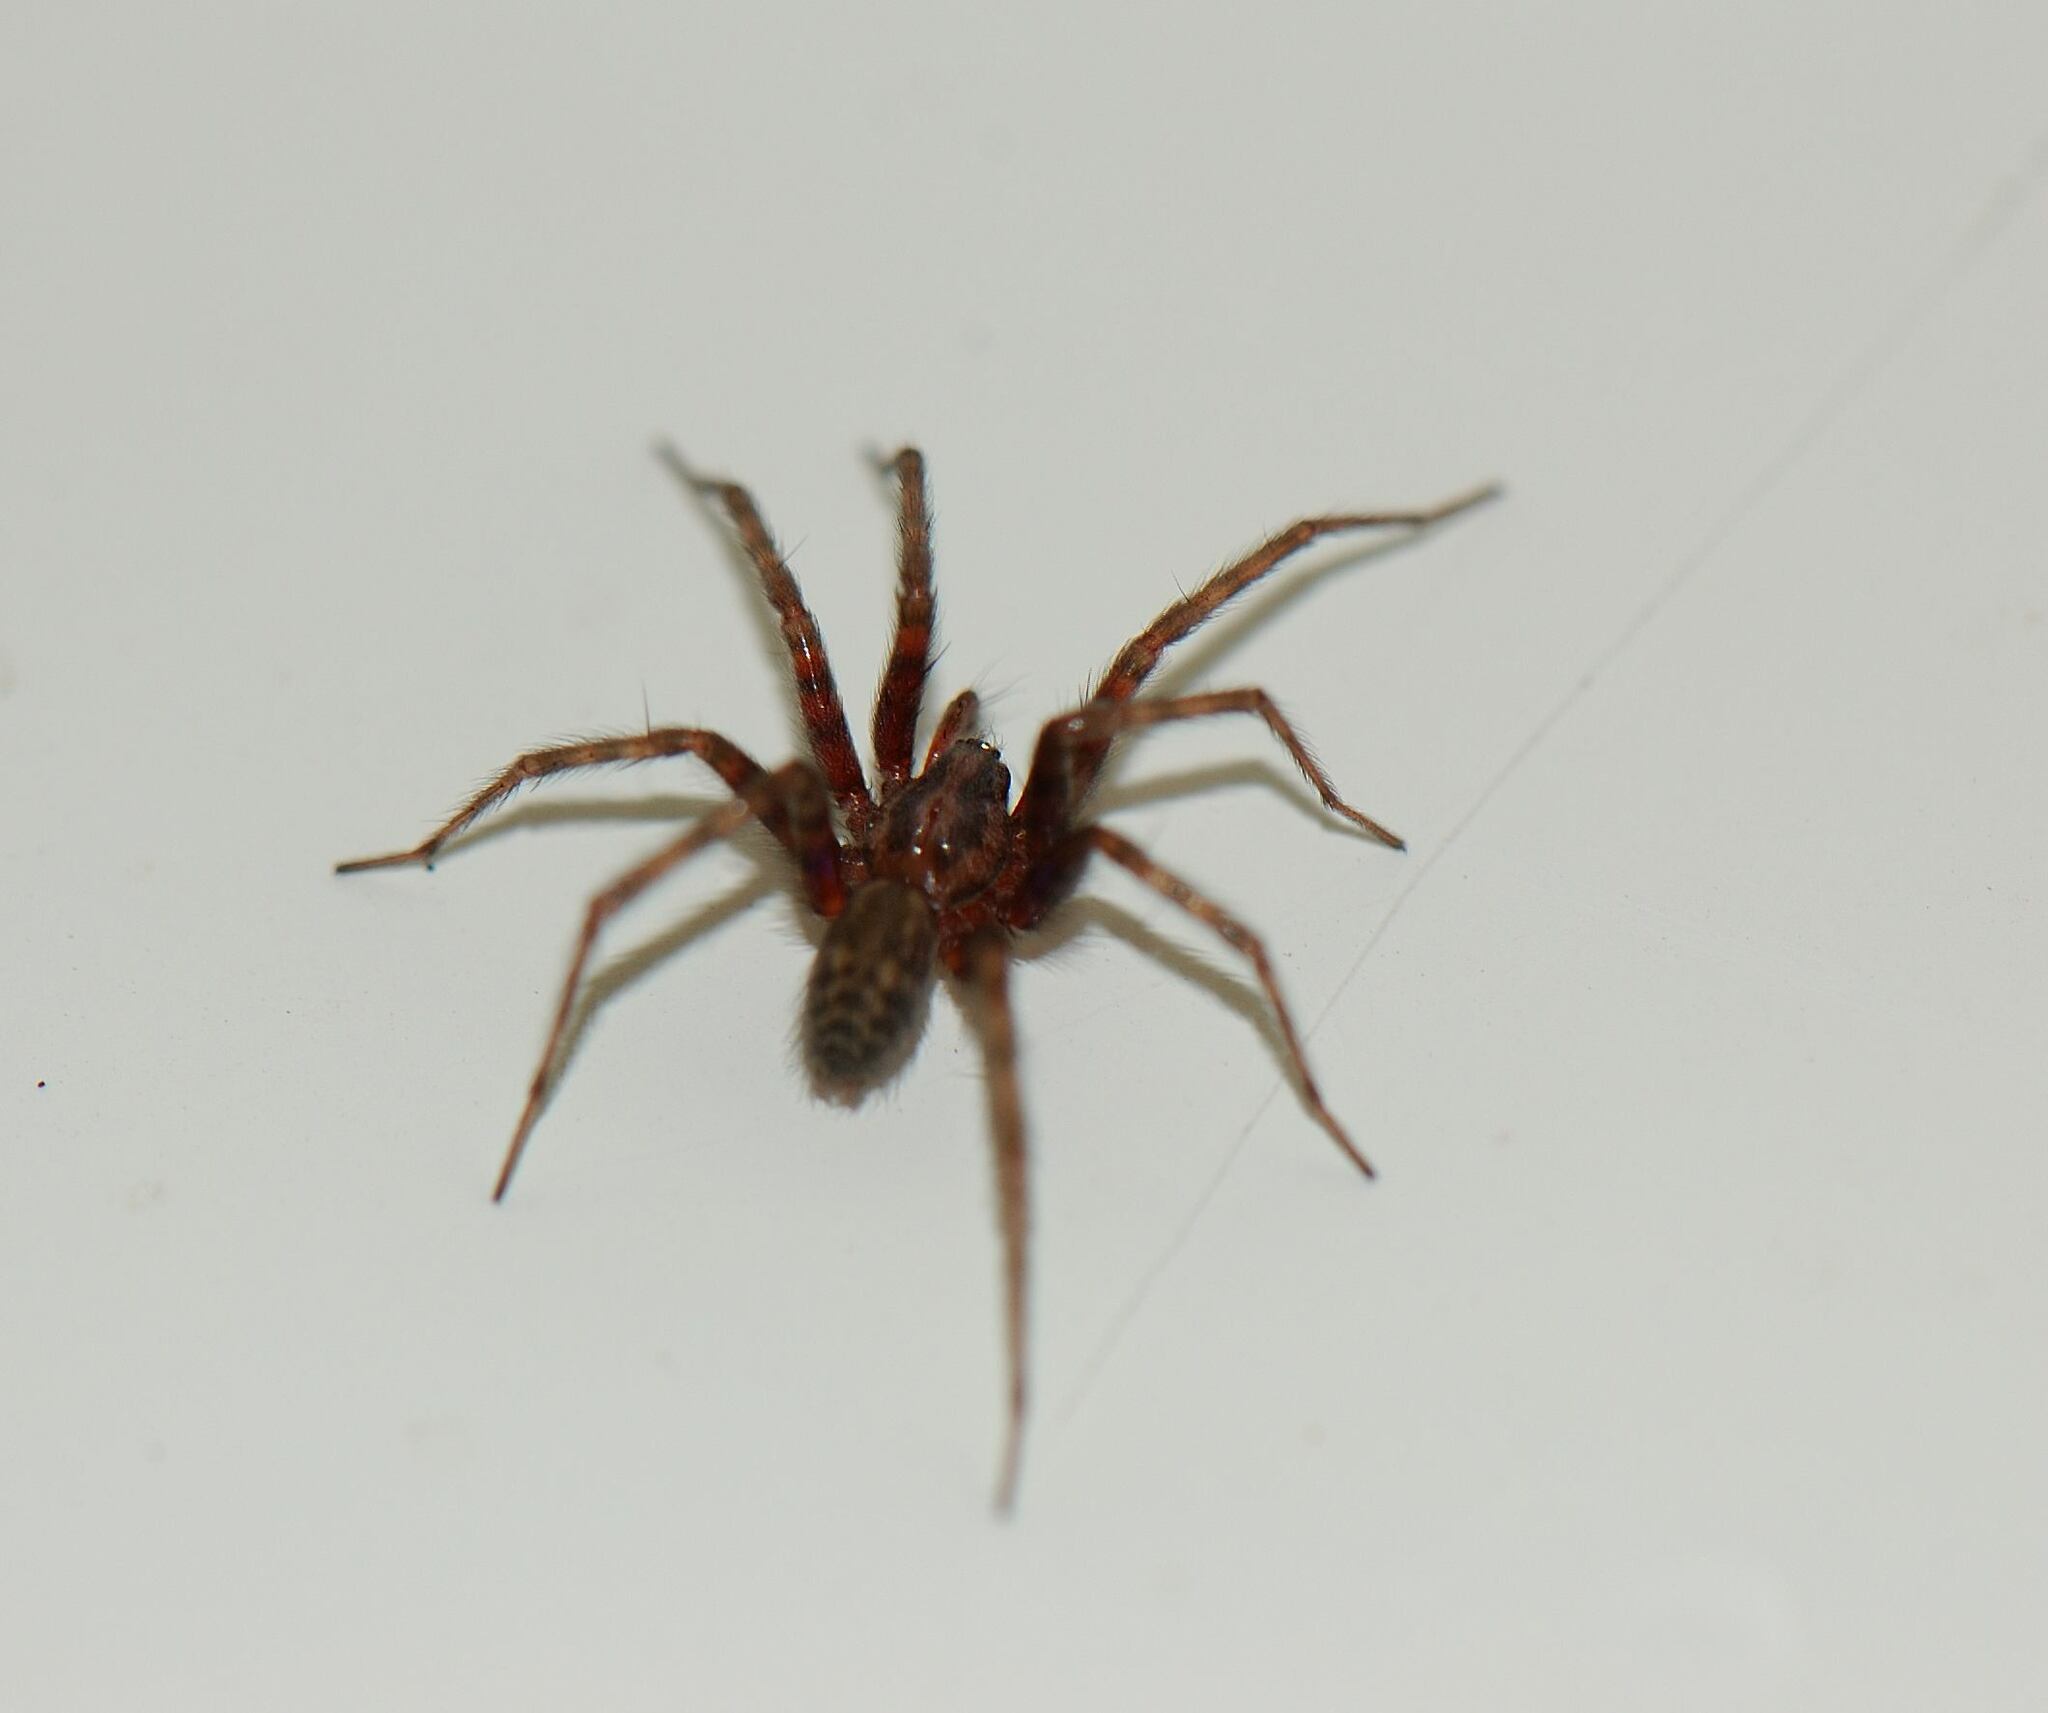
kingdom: Animalia
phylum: Arthropoda
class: Arachnida
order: Araneae
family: Agelenidae
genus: Tegenaria
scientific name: Tegenaria domestica
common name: Barn funnel weaver
